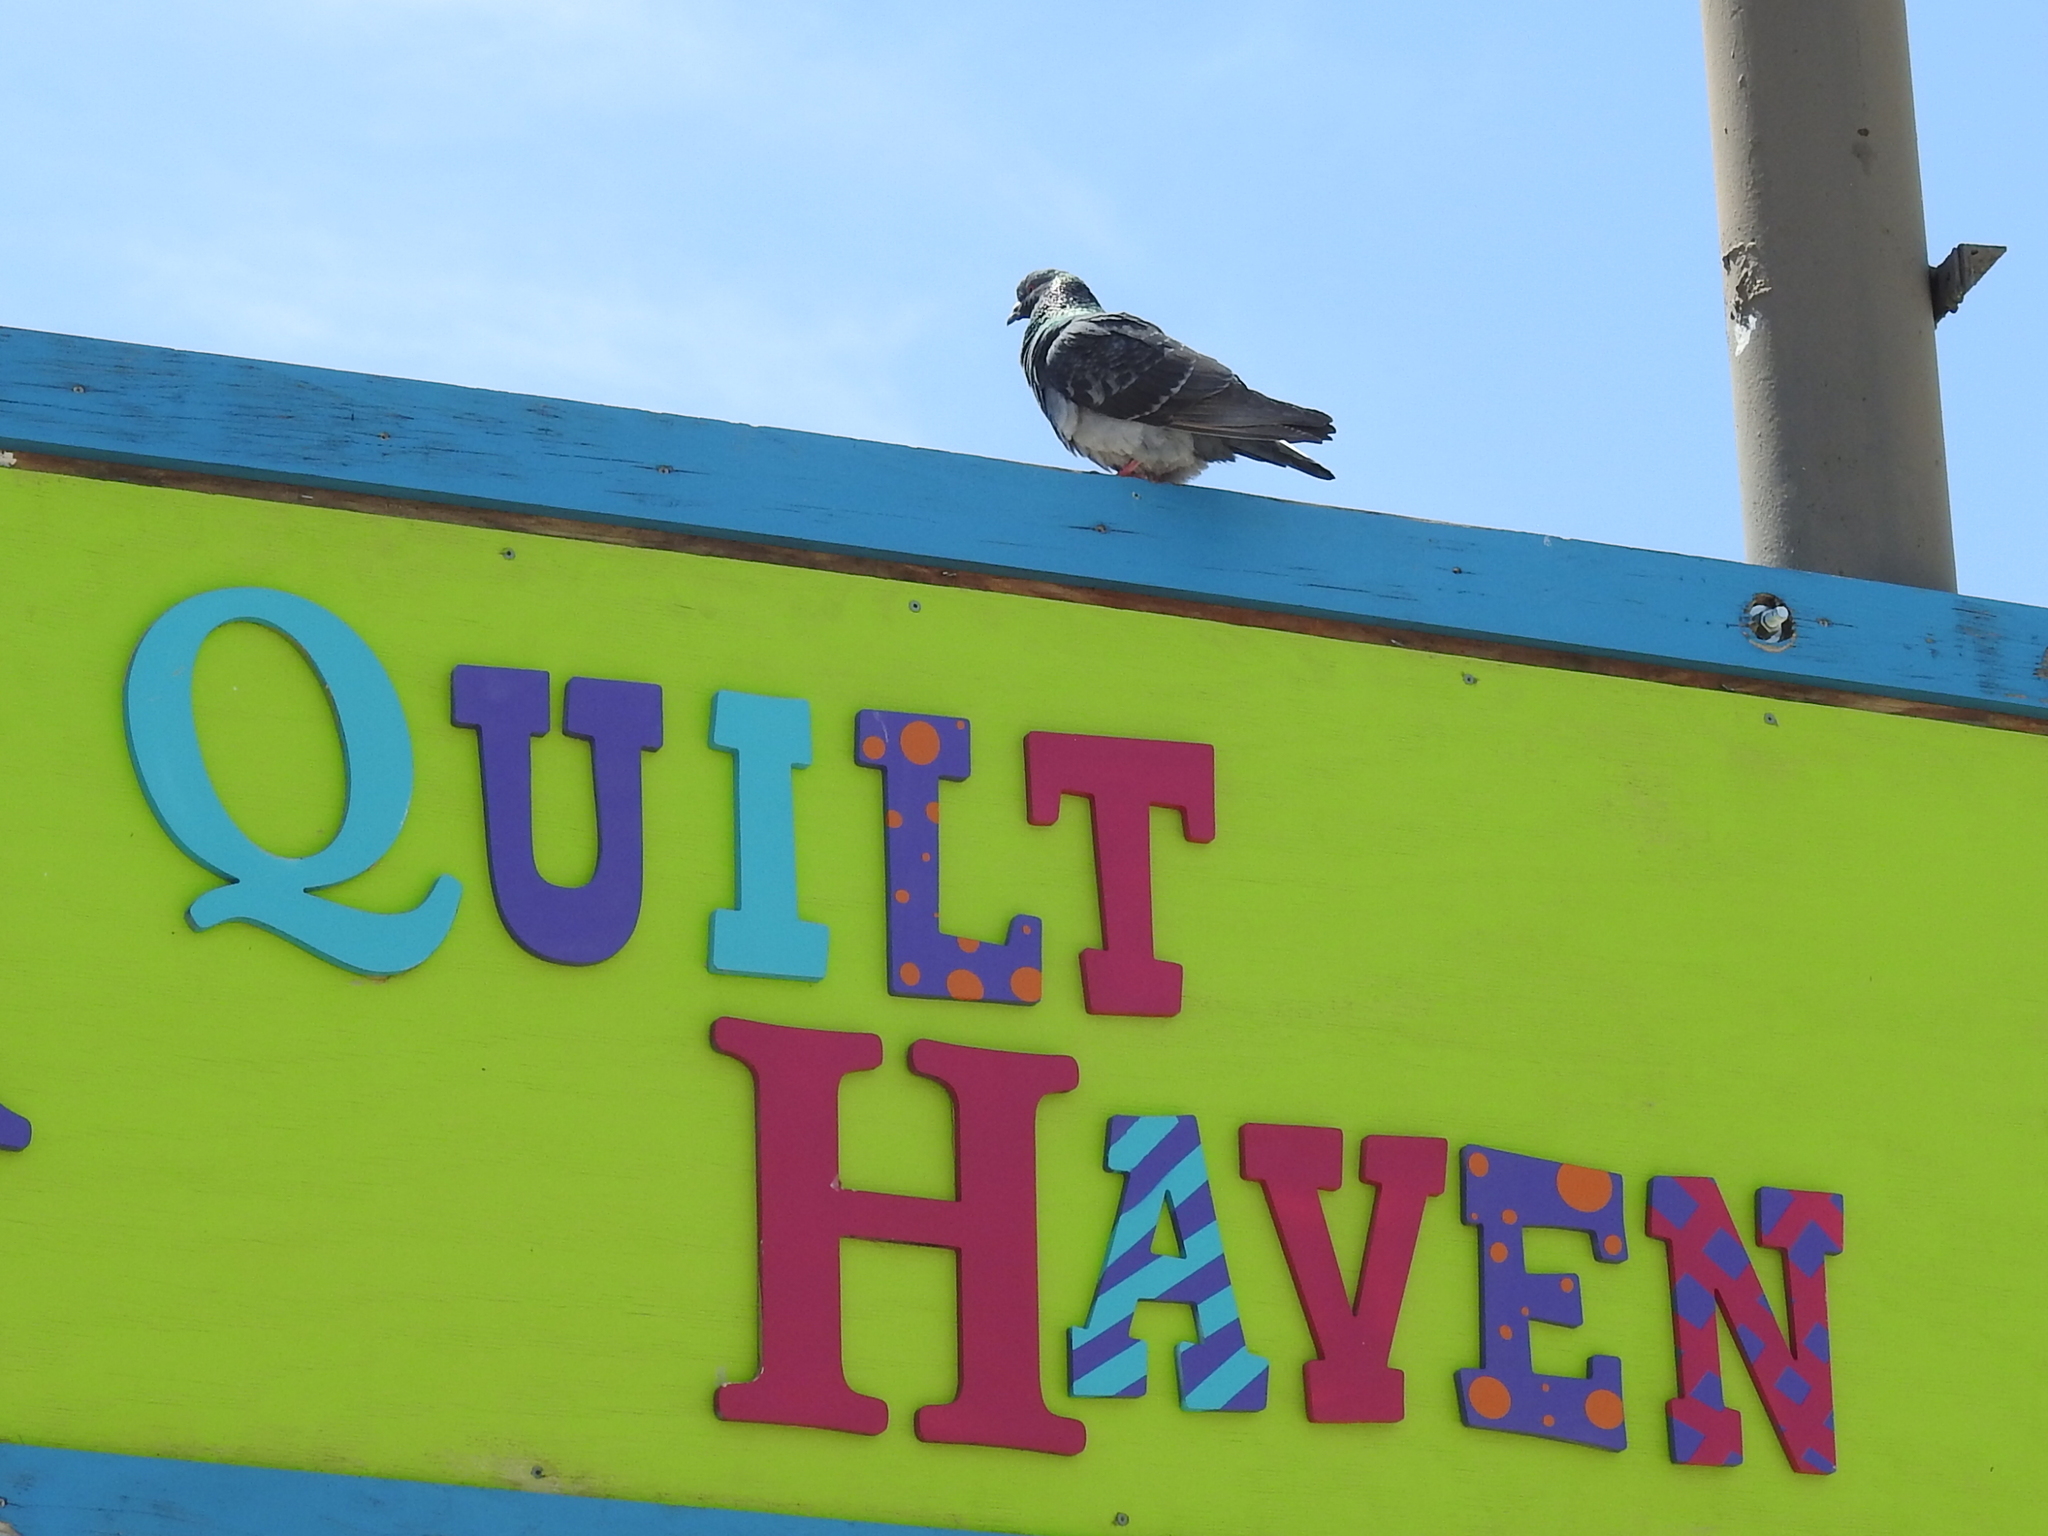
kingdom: Animalia
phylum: Chordata
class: Aves
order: Columbiformes
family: Columbidae
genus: Columba
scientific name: Columba livia
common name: Rock pigeon
